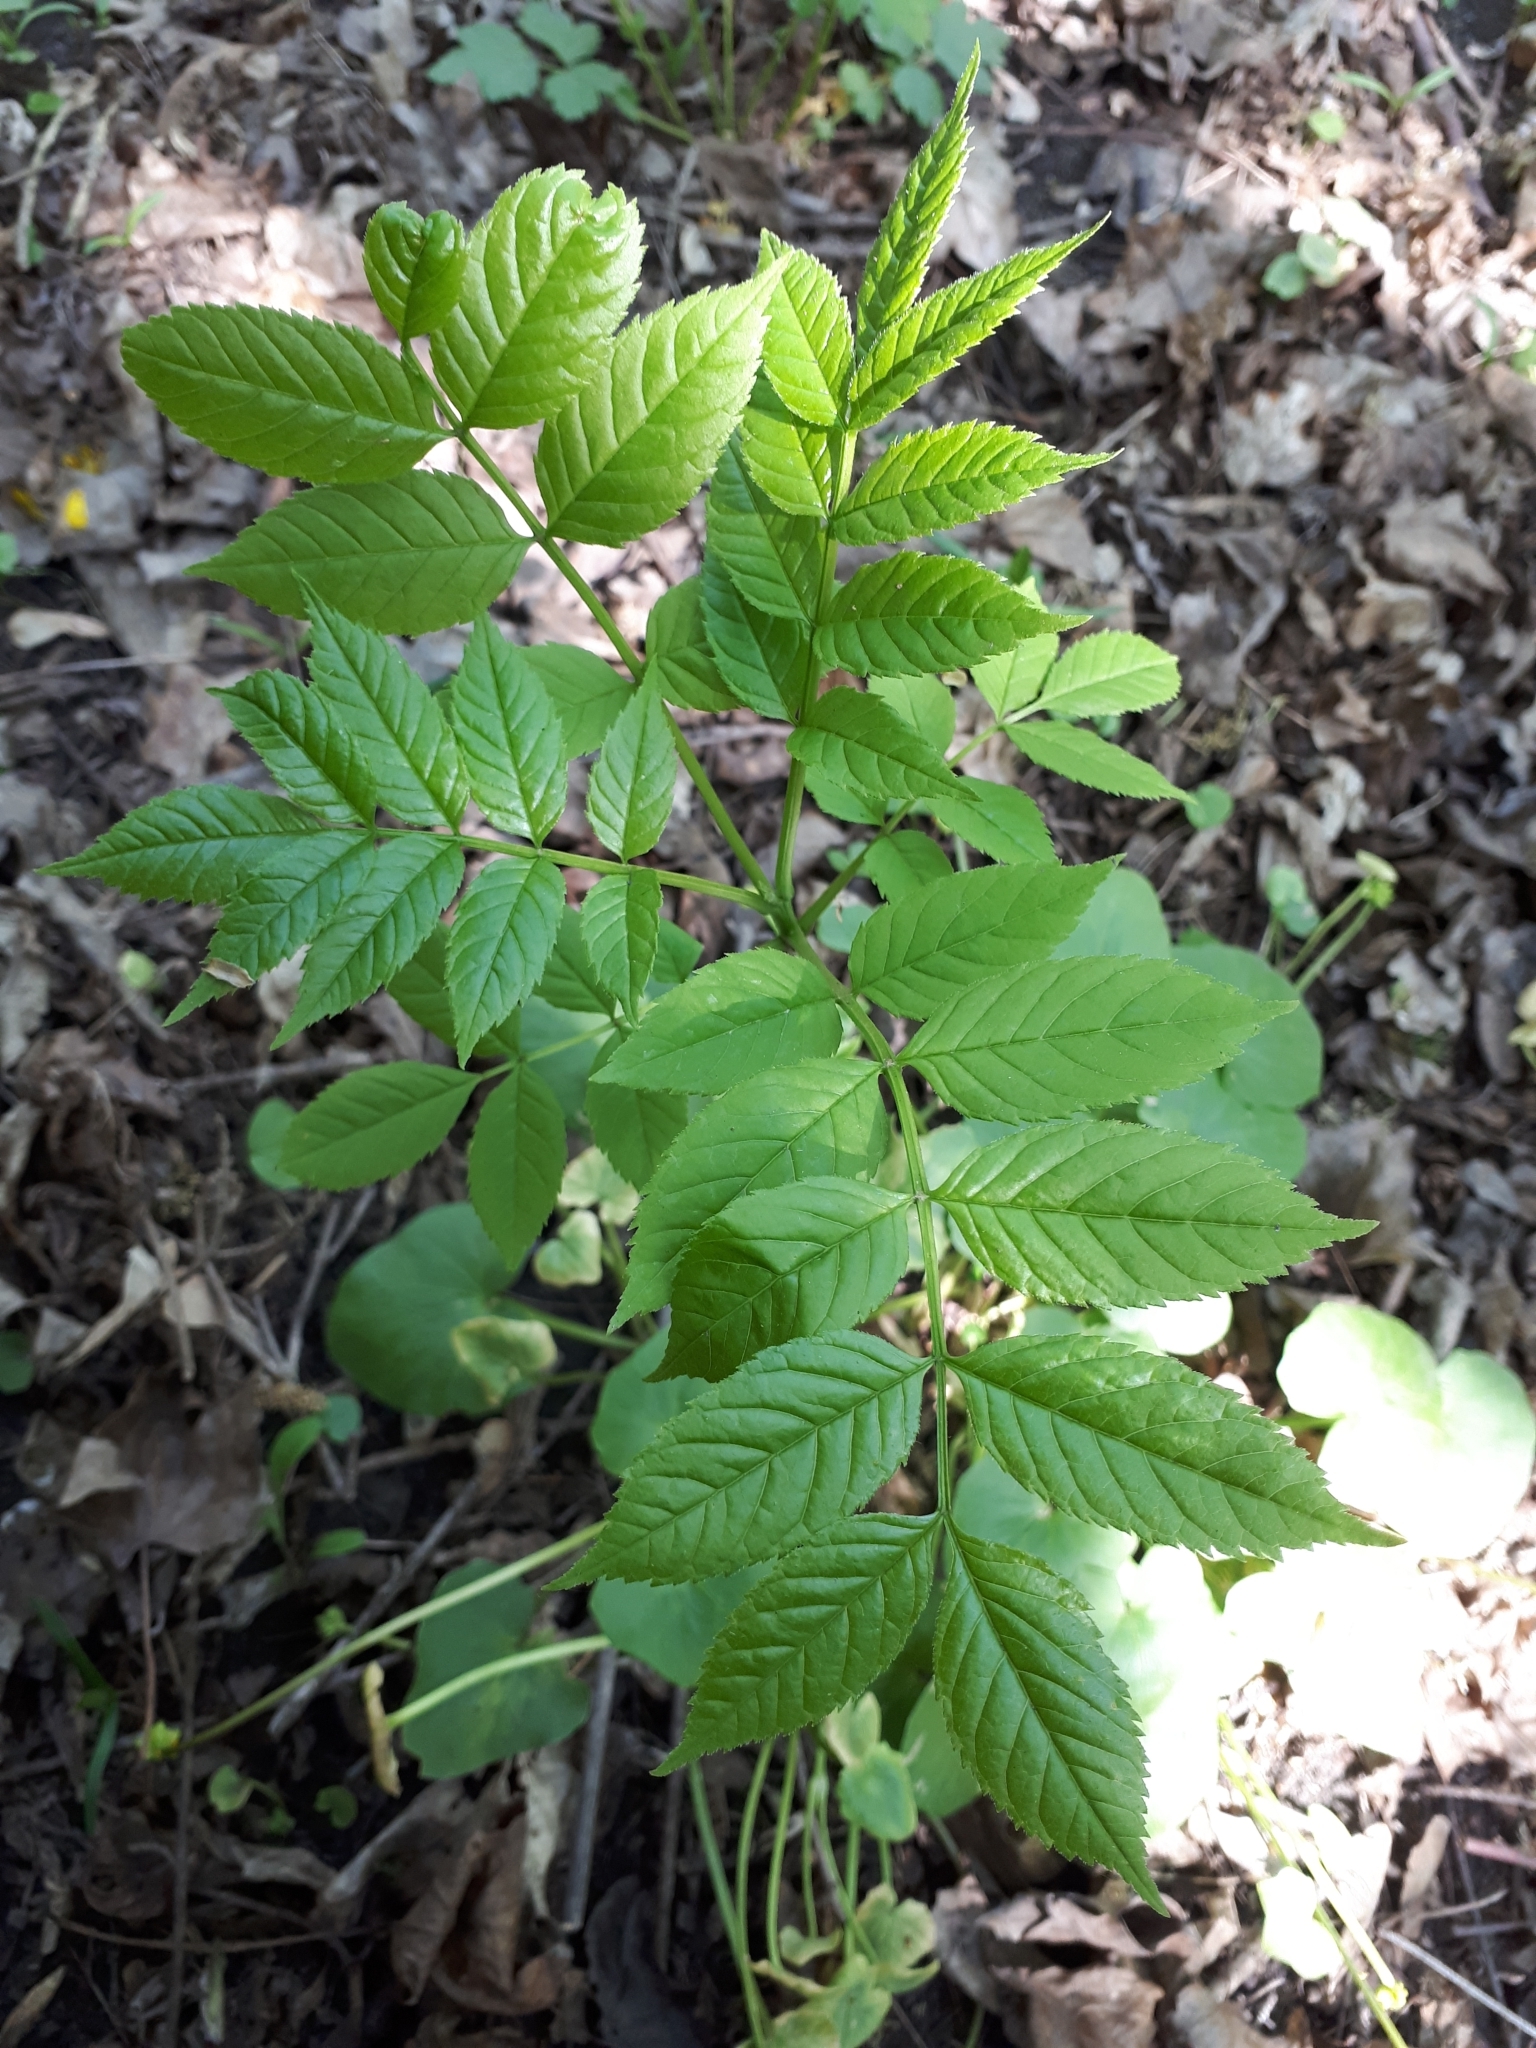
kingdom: Plantae
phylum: Tracheophyta
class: Magnoliopsida
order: Lamiales
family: Oleaceae
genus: Fraxinus
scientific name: Fraxinus excelsior
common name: European ash
